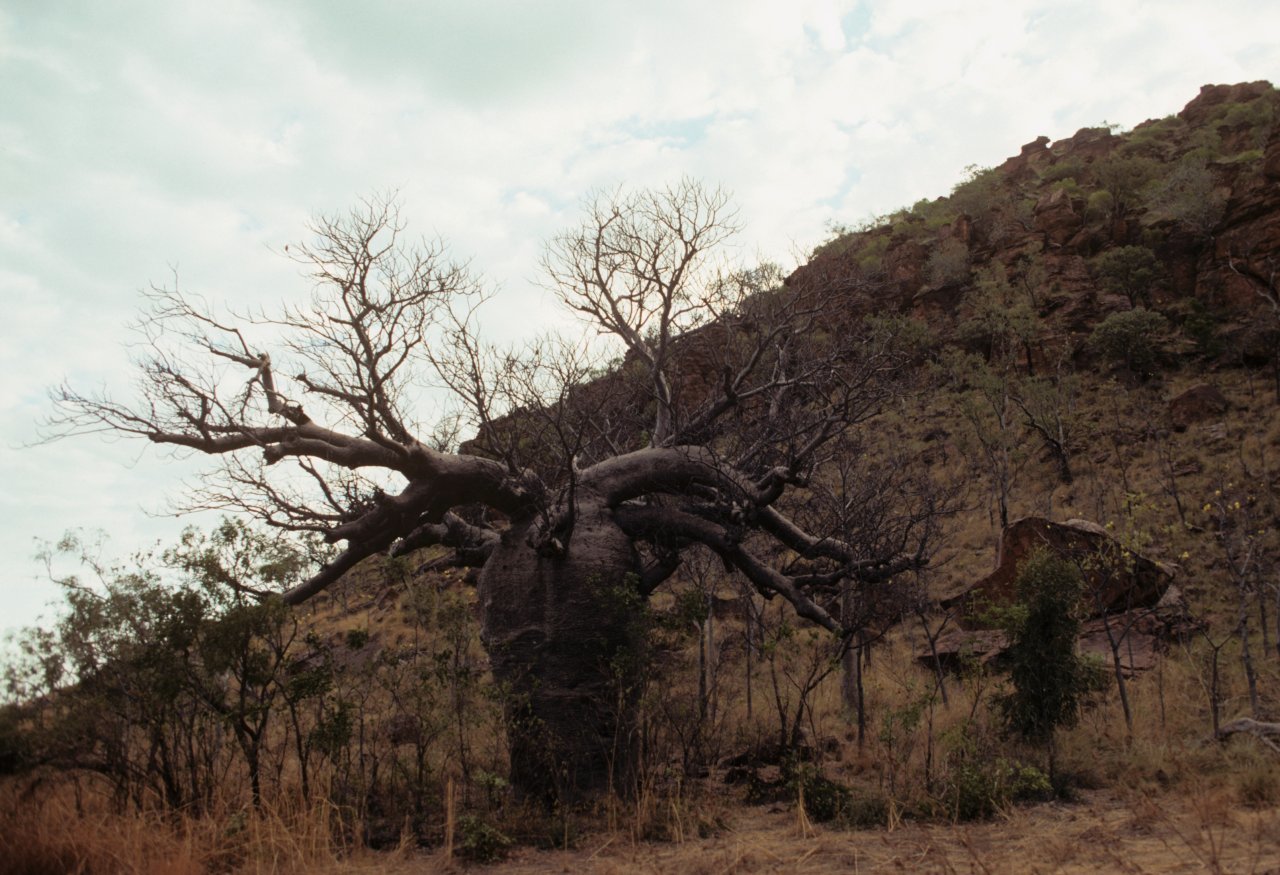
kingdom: Plantae
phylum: Tracheophyta
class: Magnoliopsida
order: Malvales
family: Malvaceae
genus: Adansonia
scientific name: Adansonia gregorii
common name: Australian baobab
